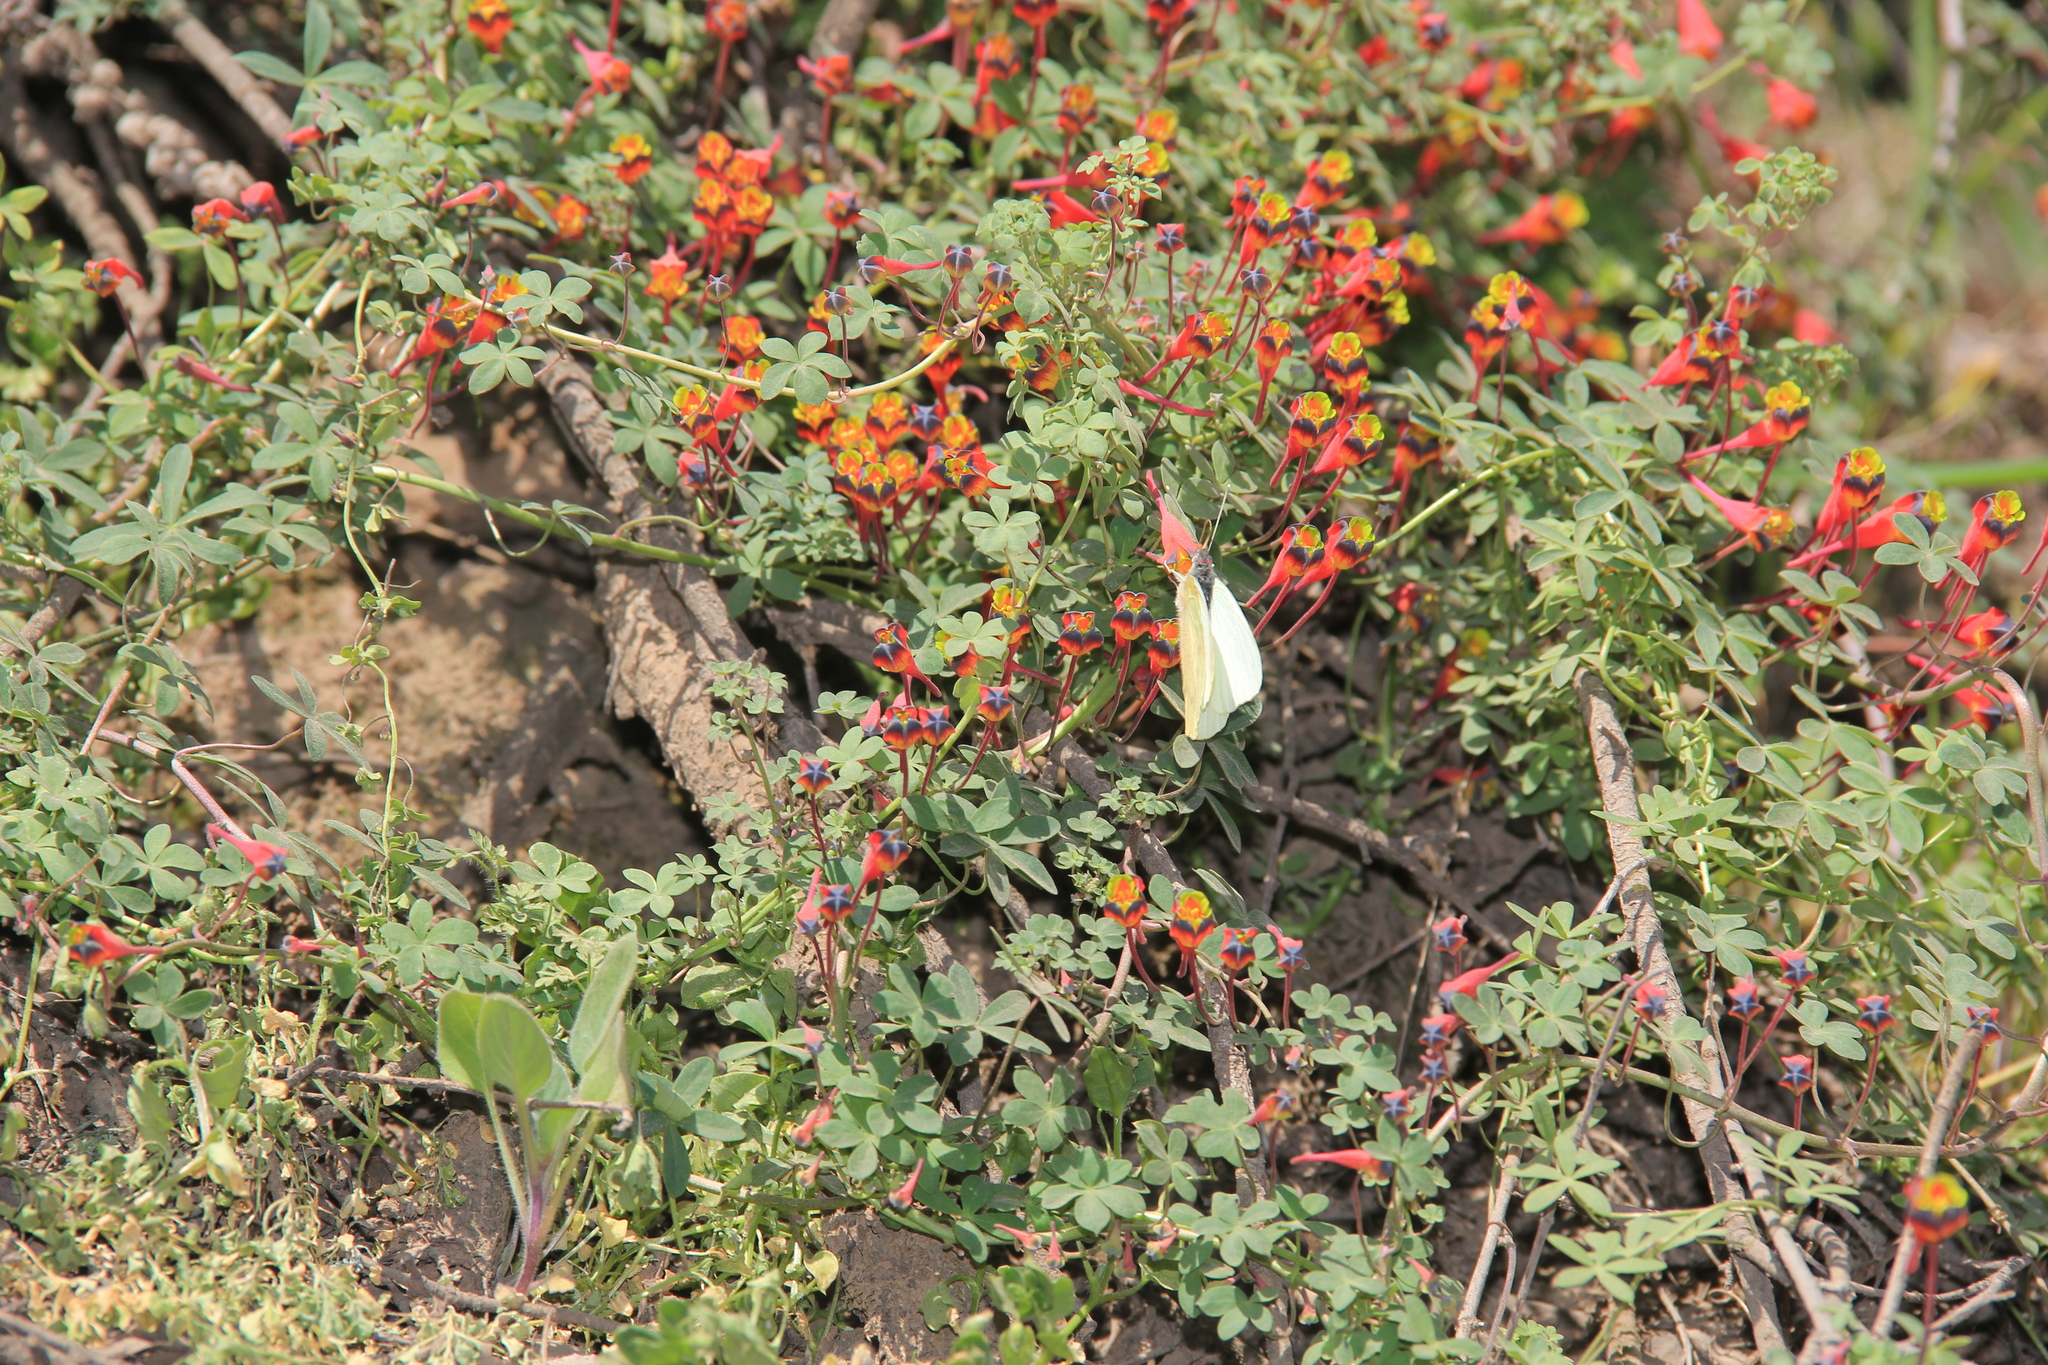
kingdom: Animalia
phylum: Arthropoda
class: Insecta
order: Lepidoptera
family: Pieridae
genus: Mathania
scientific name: Mathania leucothea
